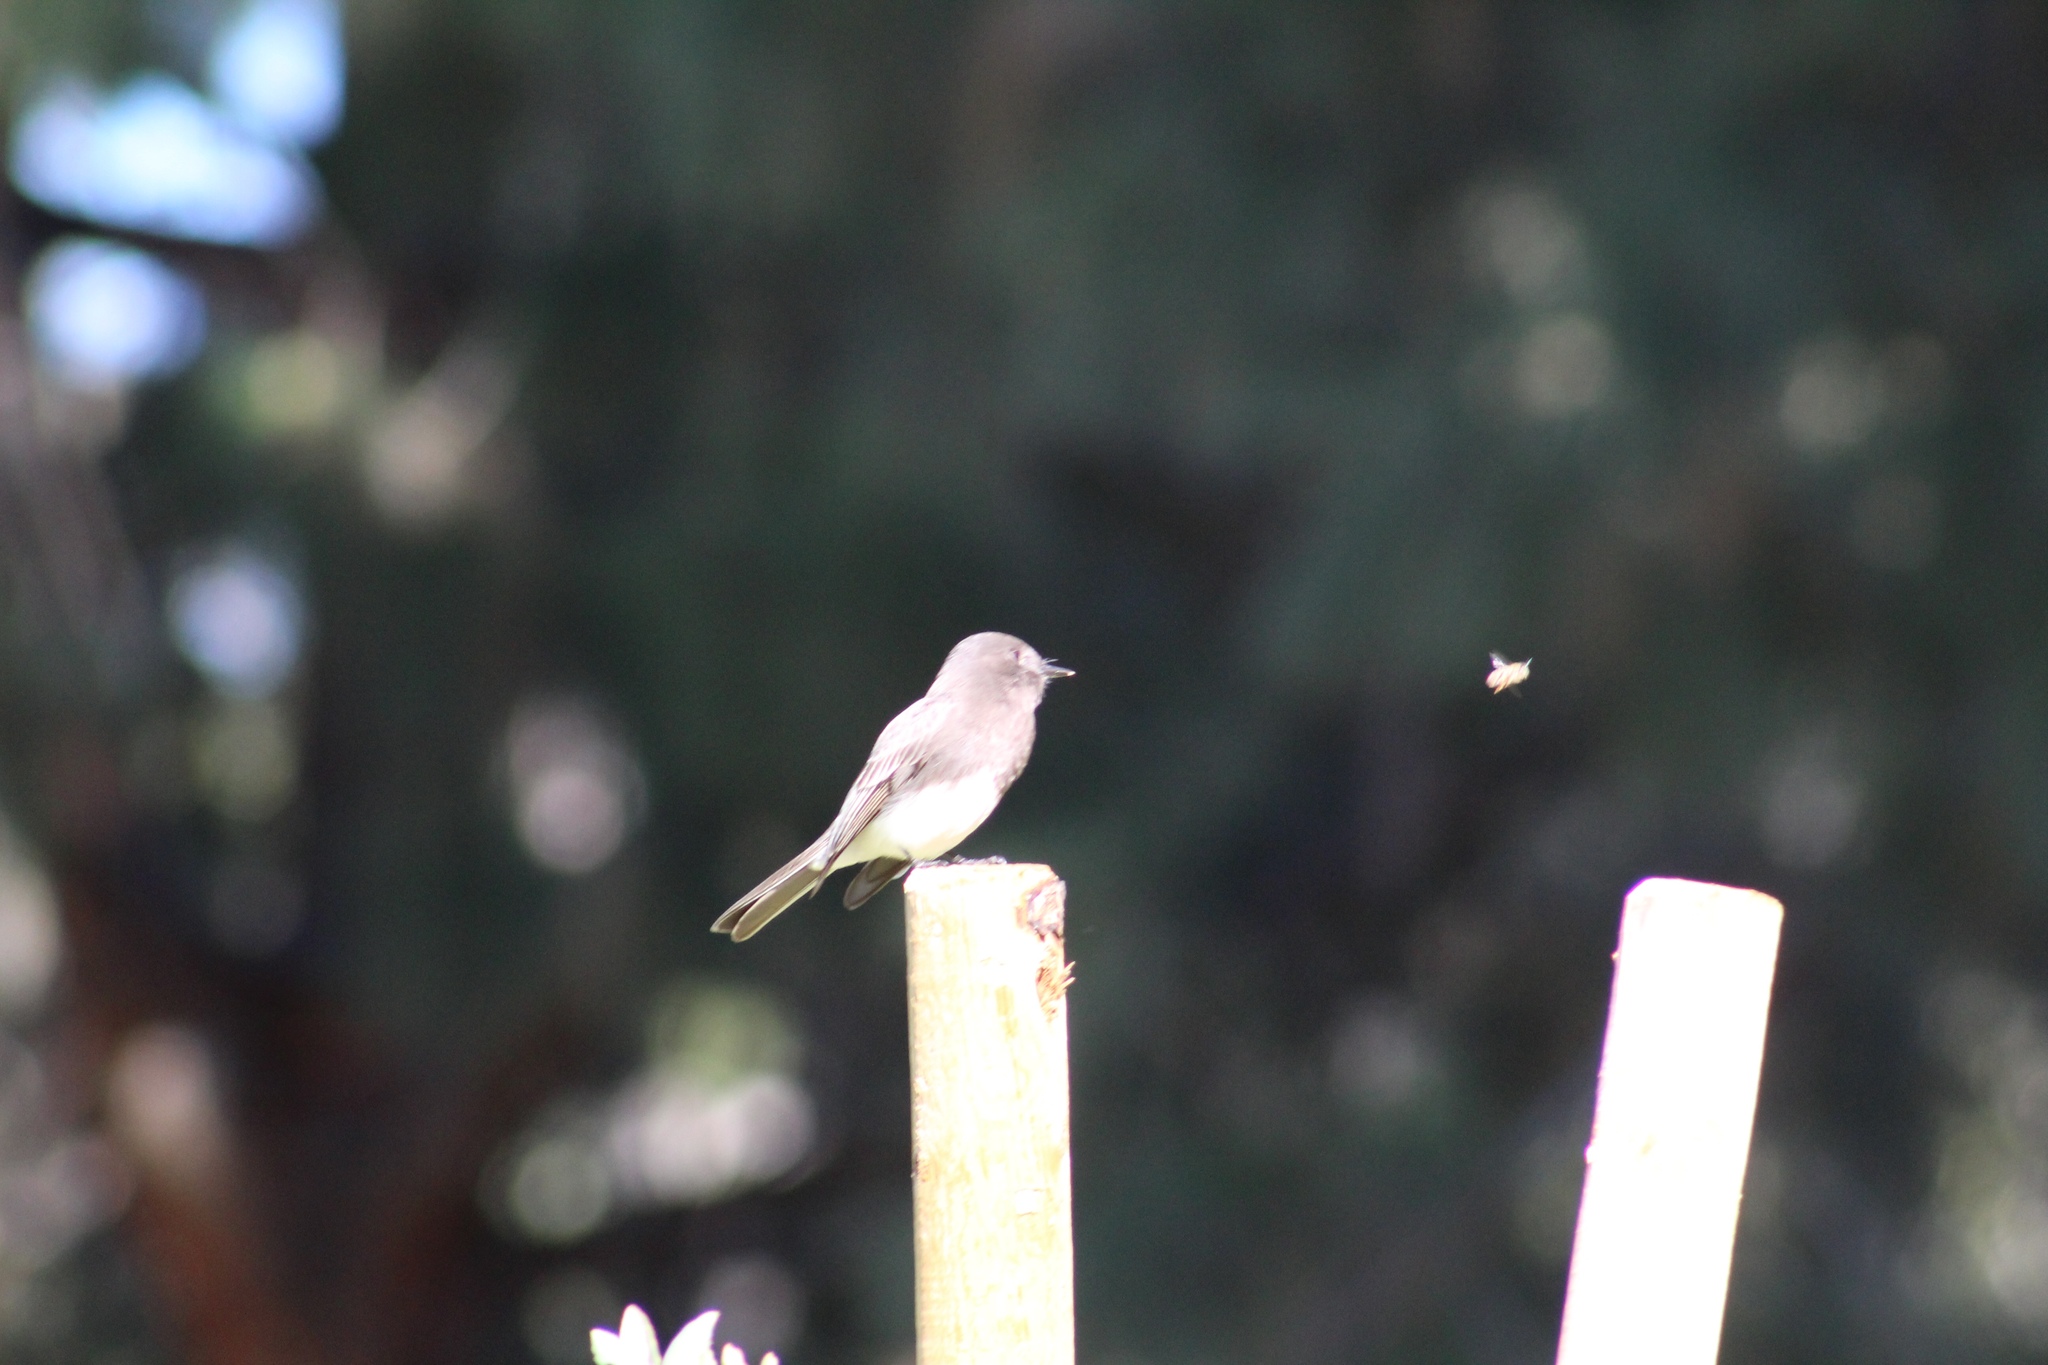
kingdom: Animalia
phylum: Chordata
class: Aves
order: Passeriformes
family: Tyrannidae
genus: Sayornis
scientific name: Sayornis nigricans
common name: Black phoebe
